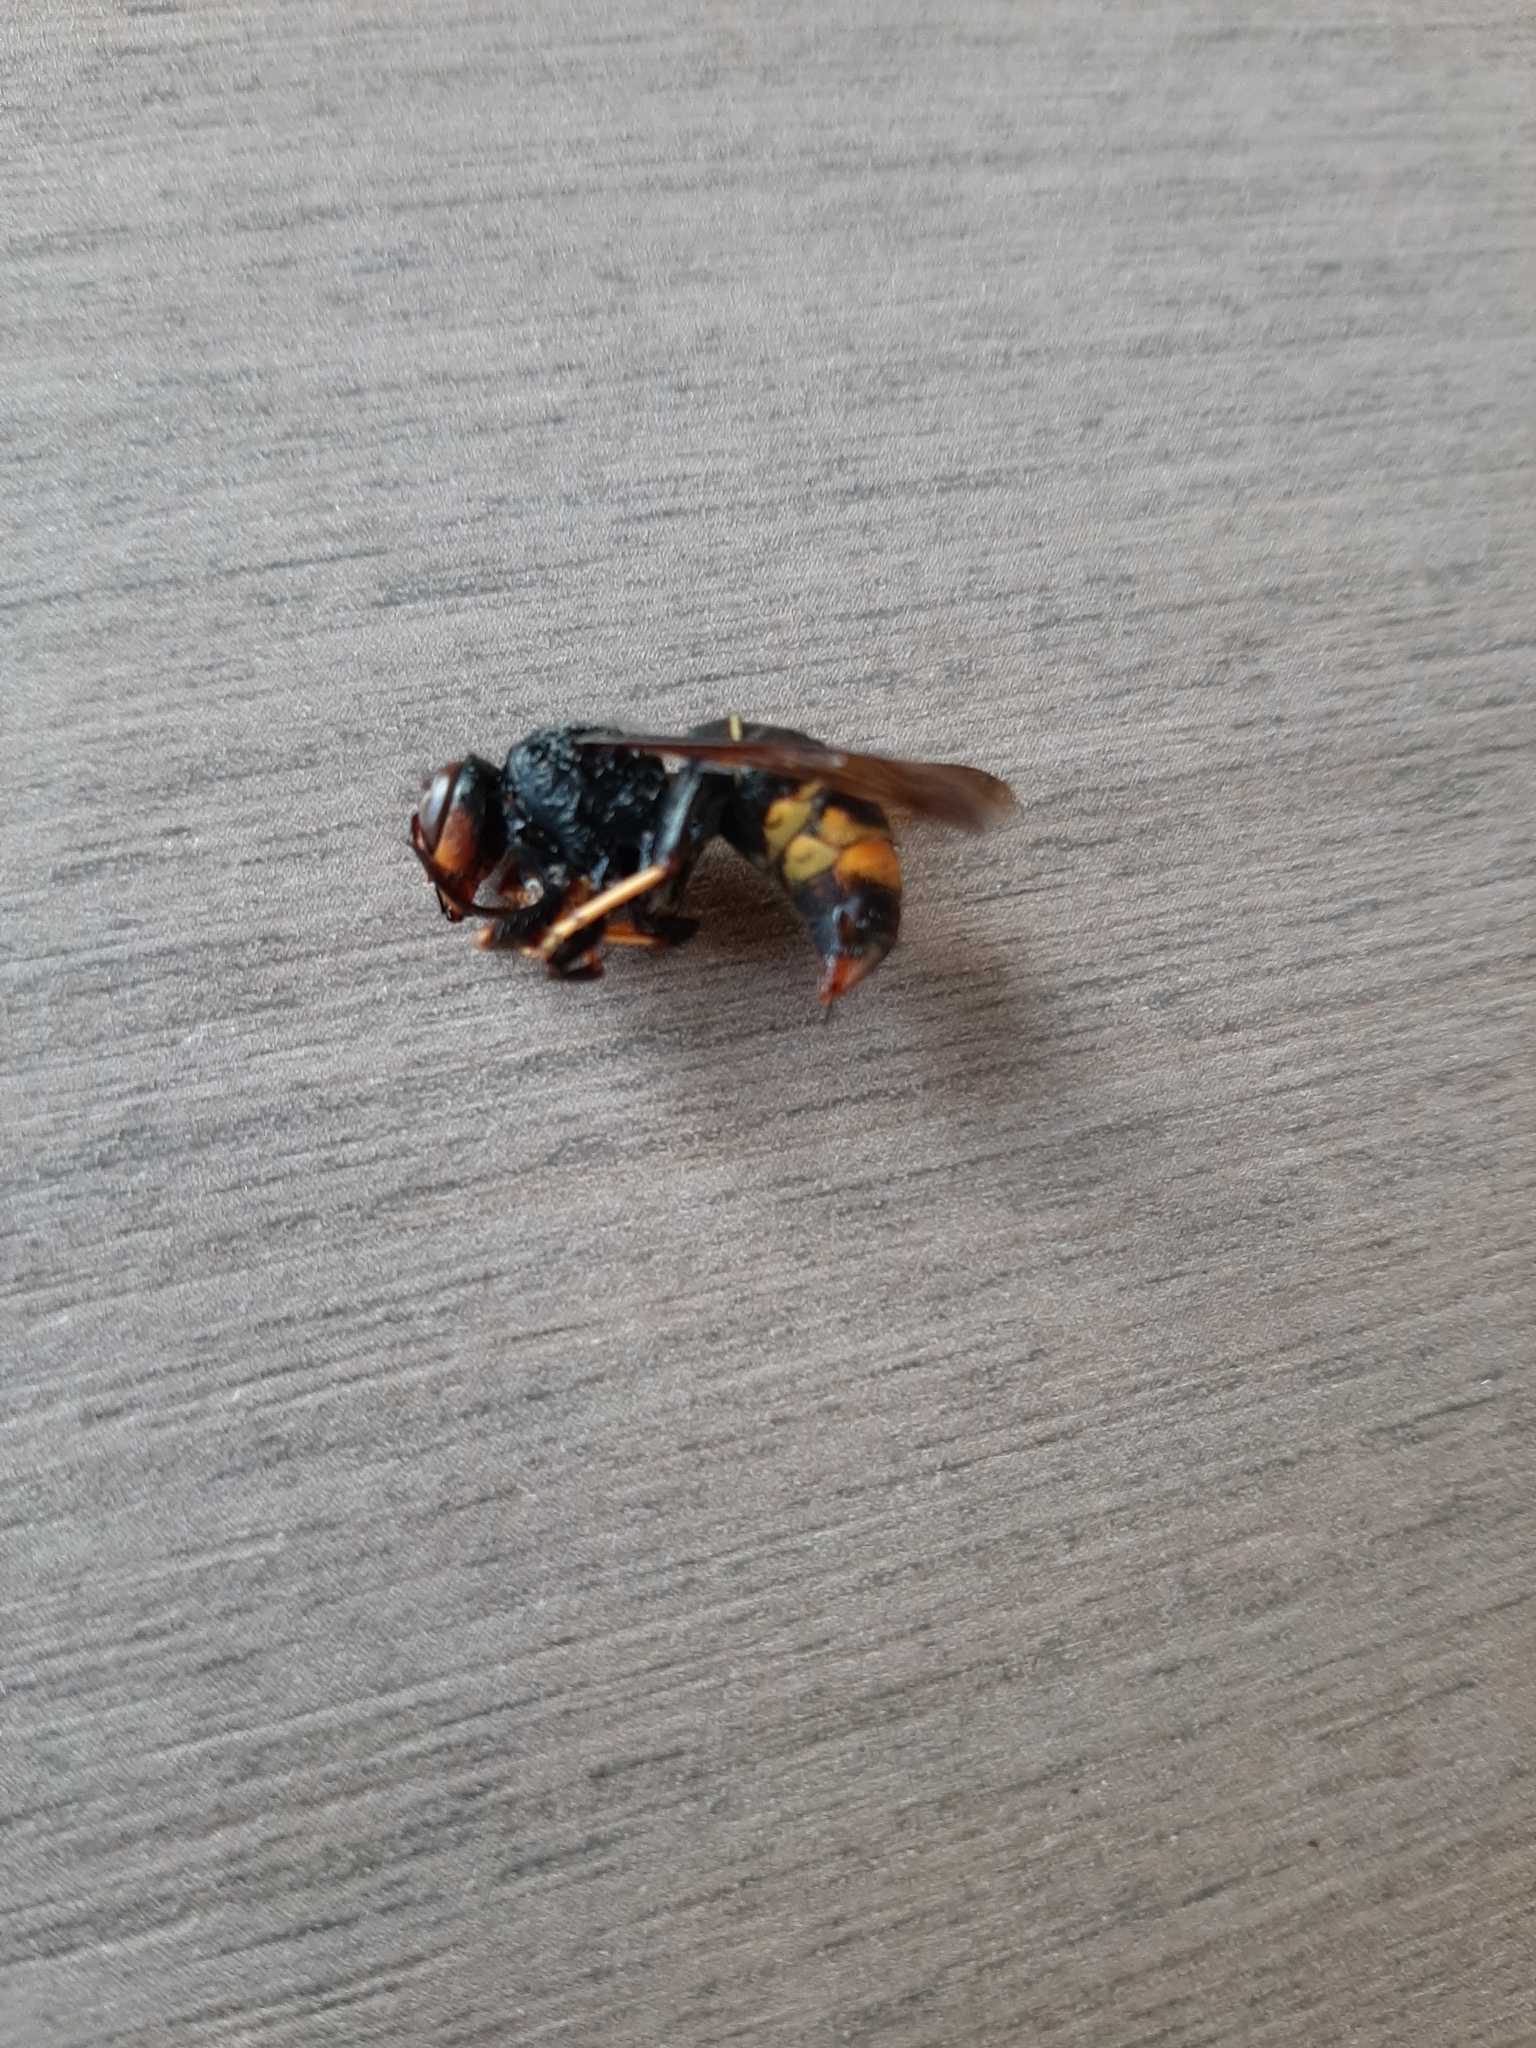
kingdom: Animalia
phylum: Arthropoda
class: Insecta
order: Hymenoptera
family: Vespidae
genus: Vespa
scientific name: Vespa velutina
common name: Asian hornet
